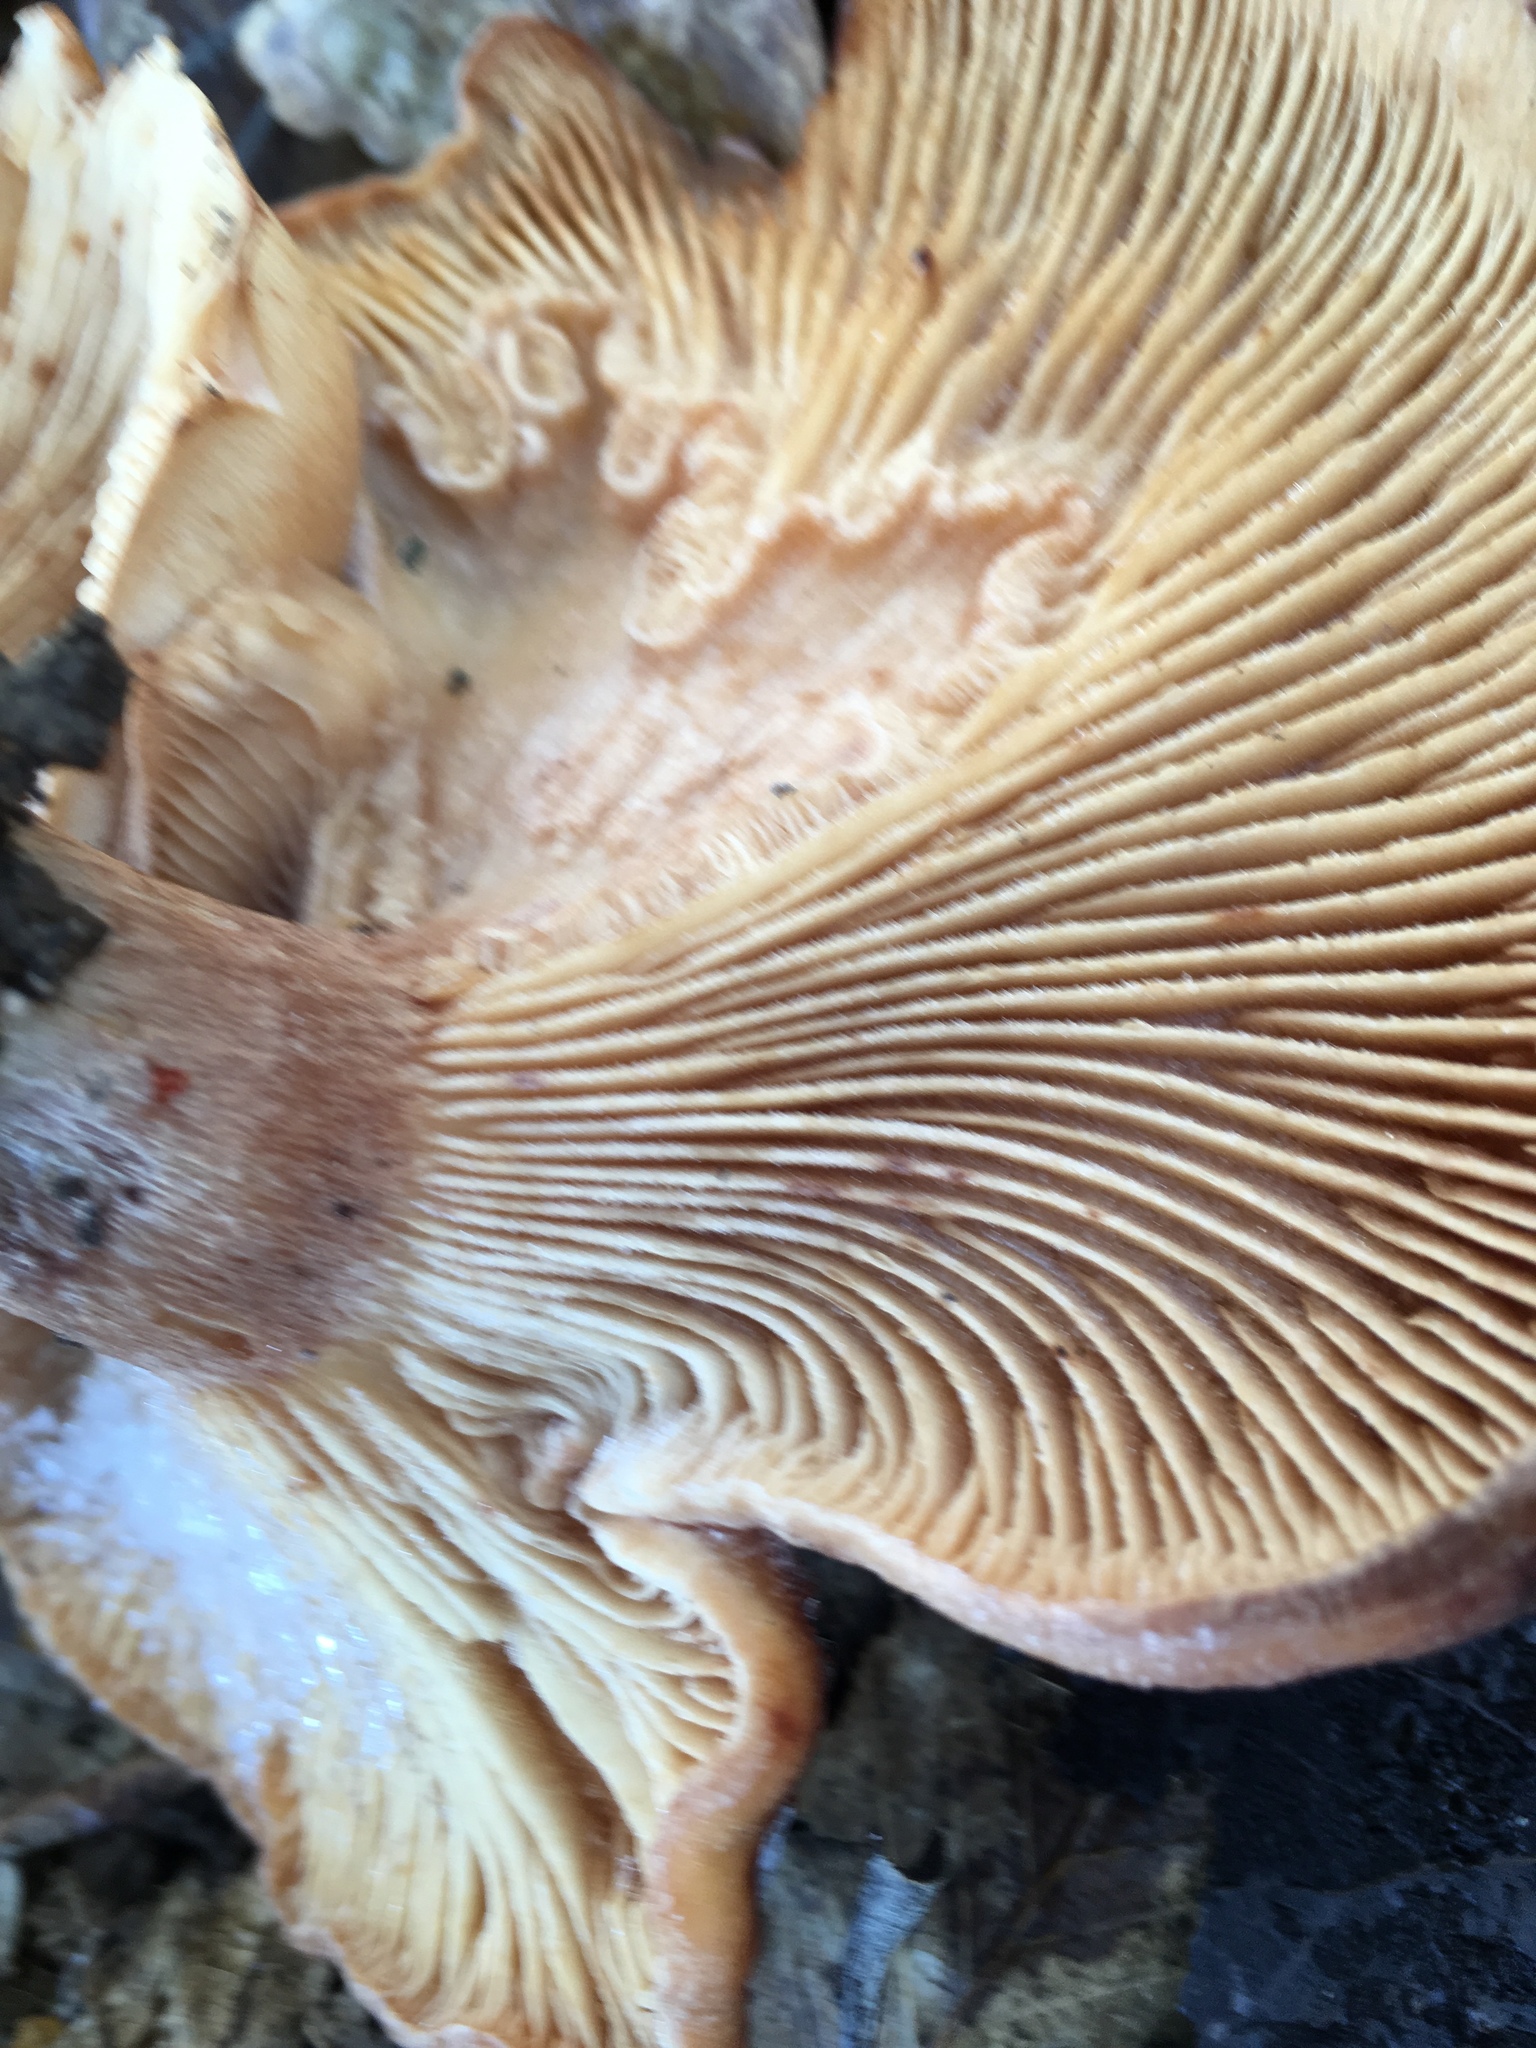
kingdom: Fungi
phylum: Basidiomycota
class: Agaricomycetes
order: Russulales
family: Auriscalpiaceae
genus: Lentinellus
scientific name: Lentinellus ursinus
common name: Bear lentinus
